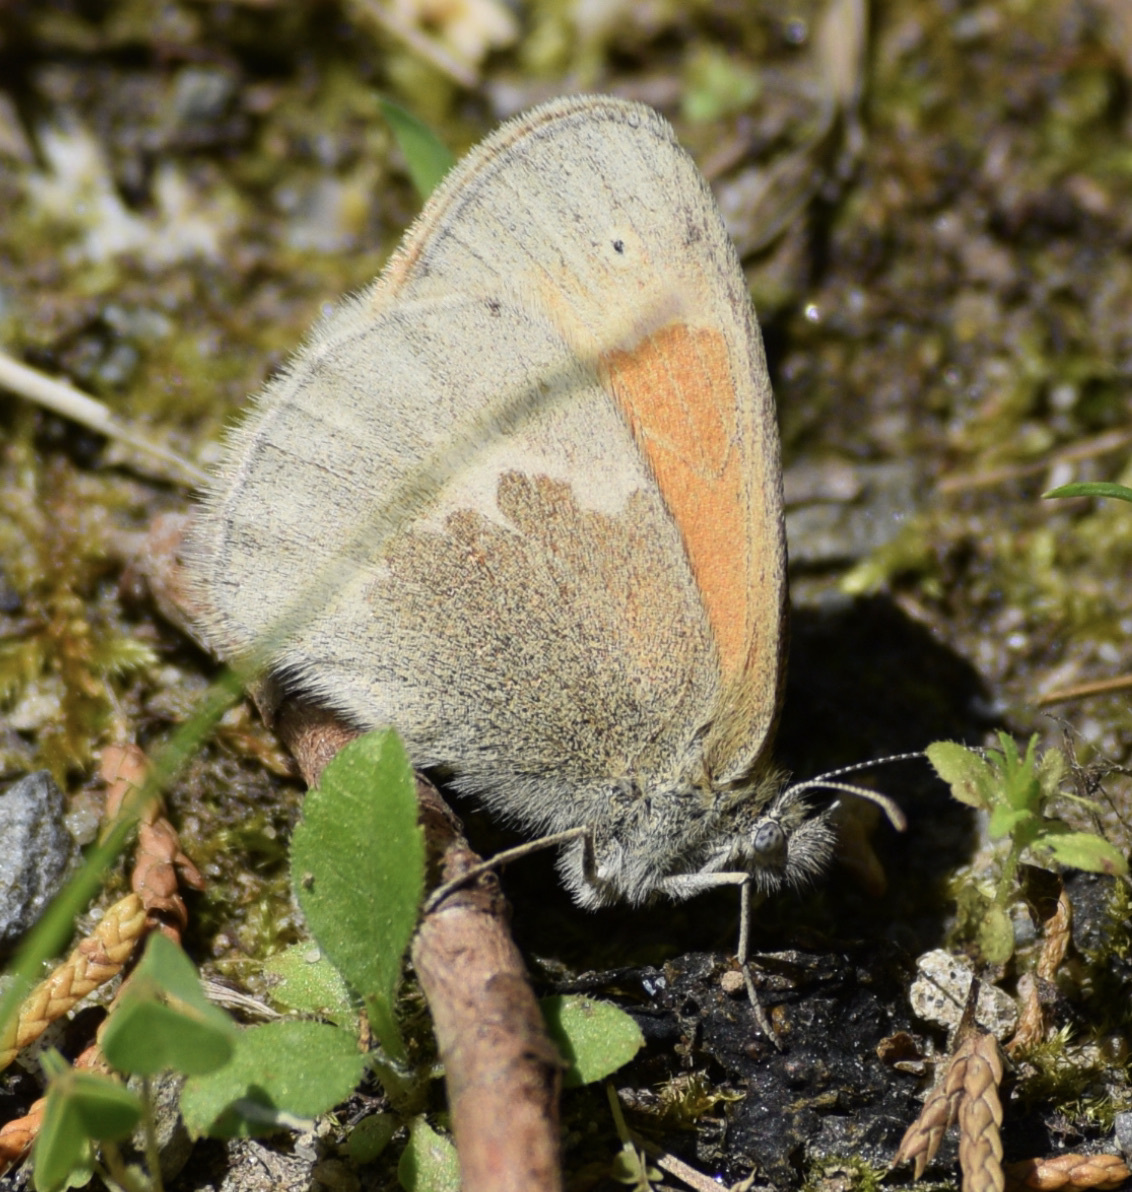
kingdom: Animalia
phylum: Arthropoda
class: Insecta
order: Lepidoptera
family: Nymphalidae
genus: Coenonympha
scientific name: Coenonympha california
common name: Common ringlet
